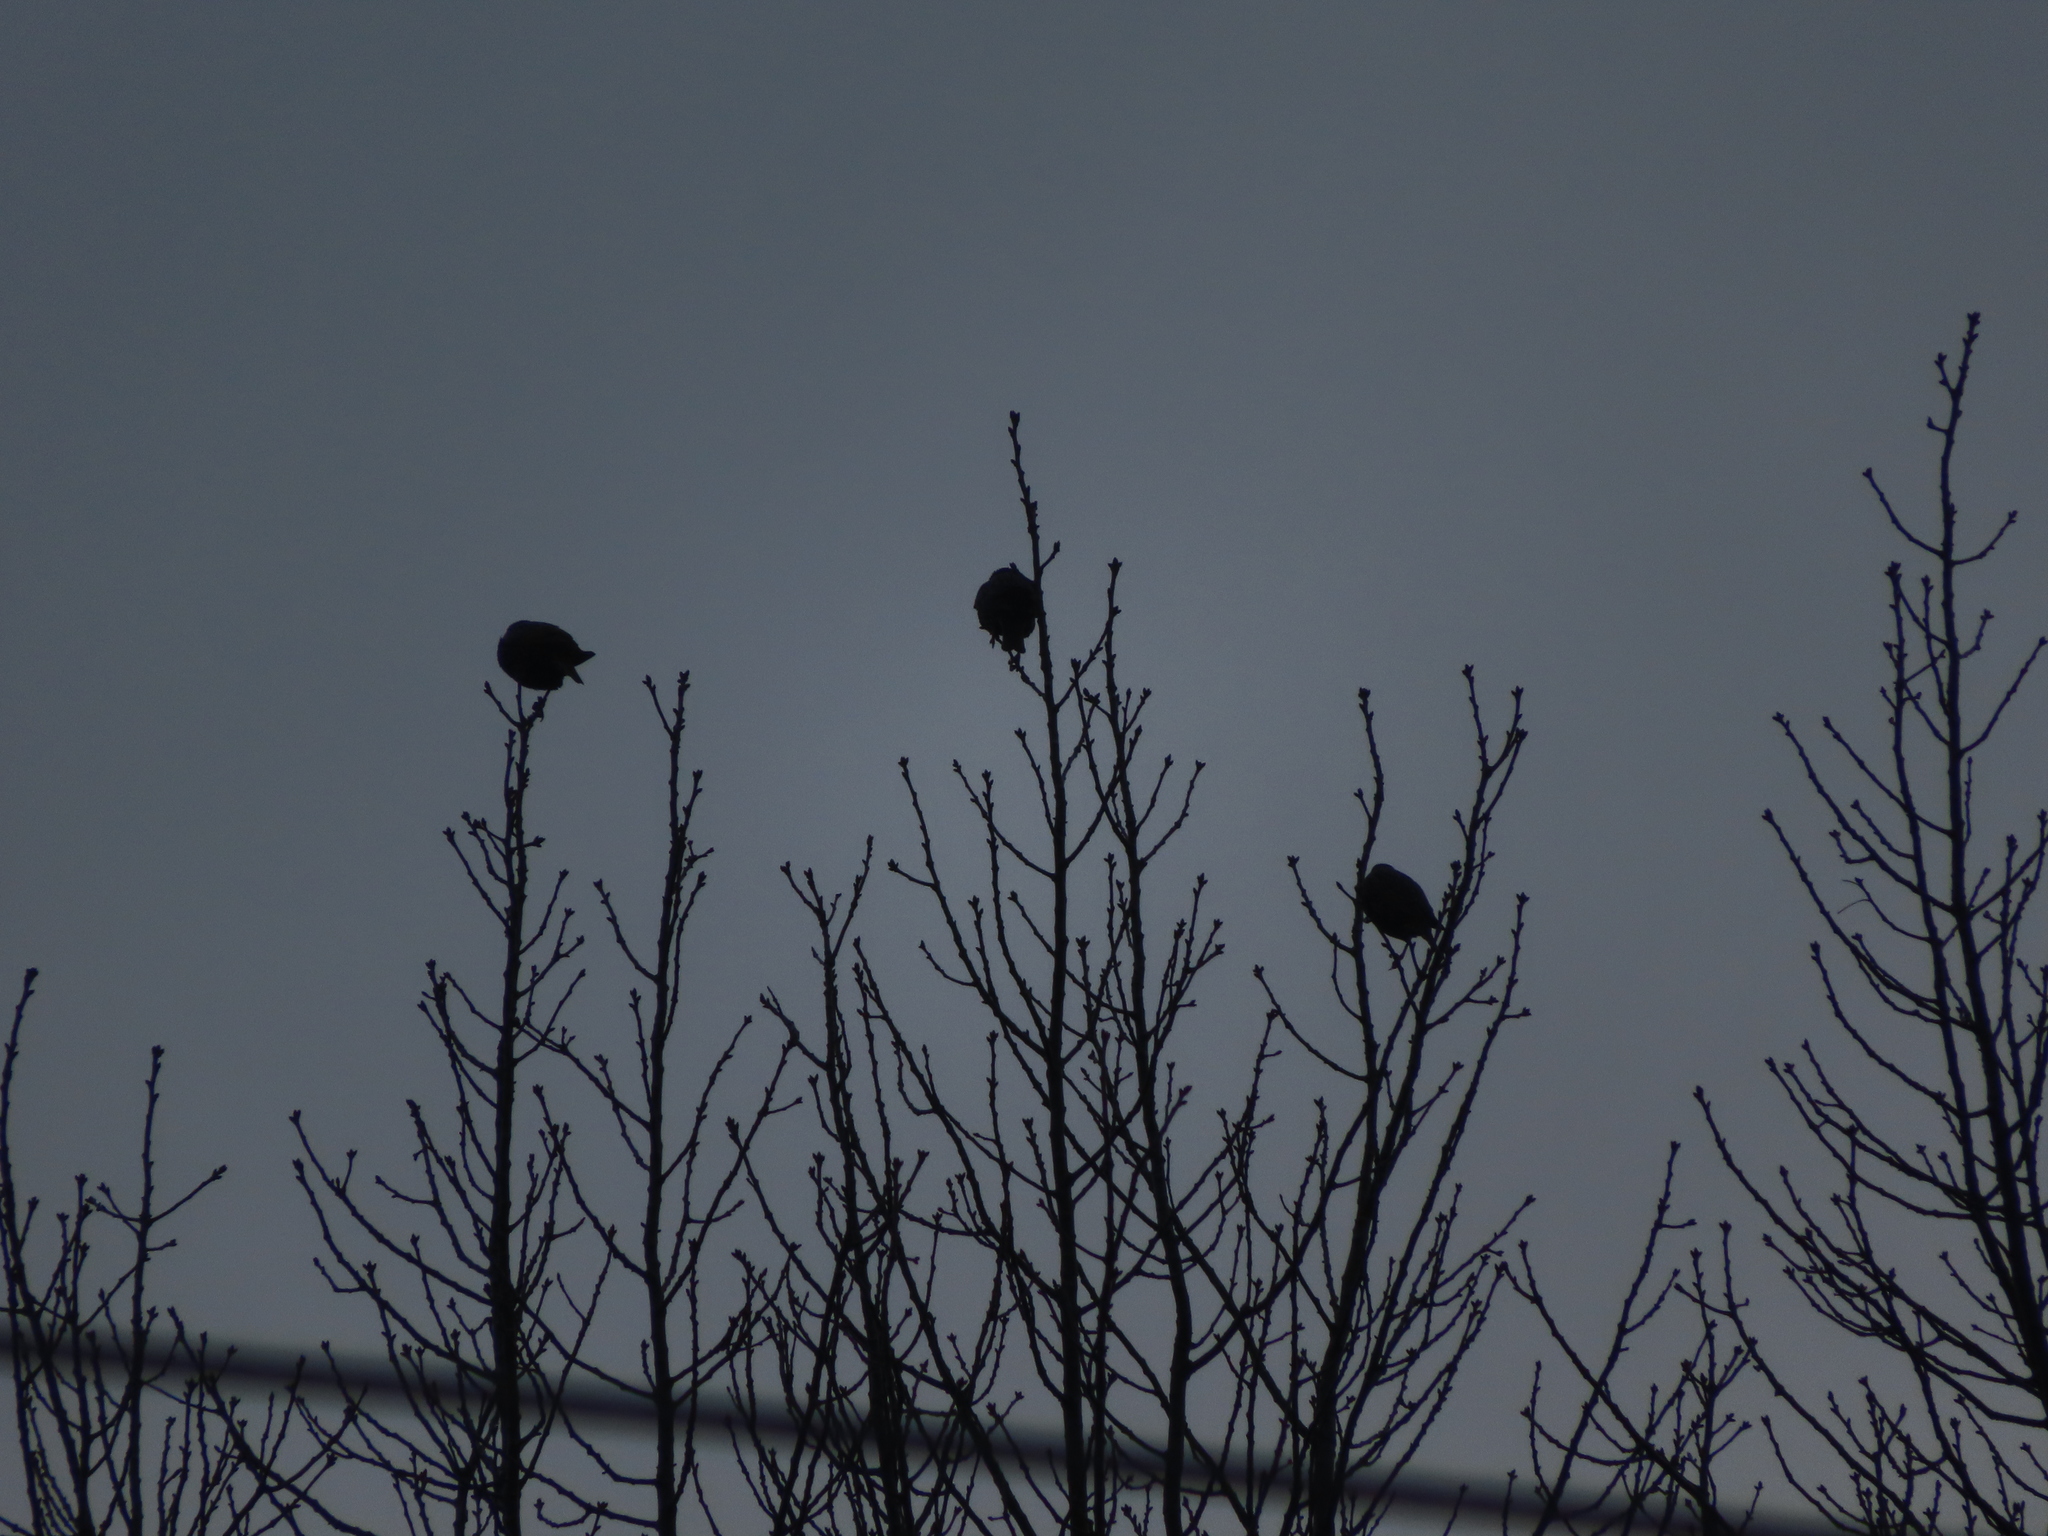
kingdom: Animalia
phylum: Chordata
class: Aves
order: Passeriformes
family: Sturnidae
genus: Sturnus
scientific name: Sturnus vulgaris
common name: Common starling
